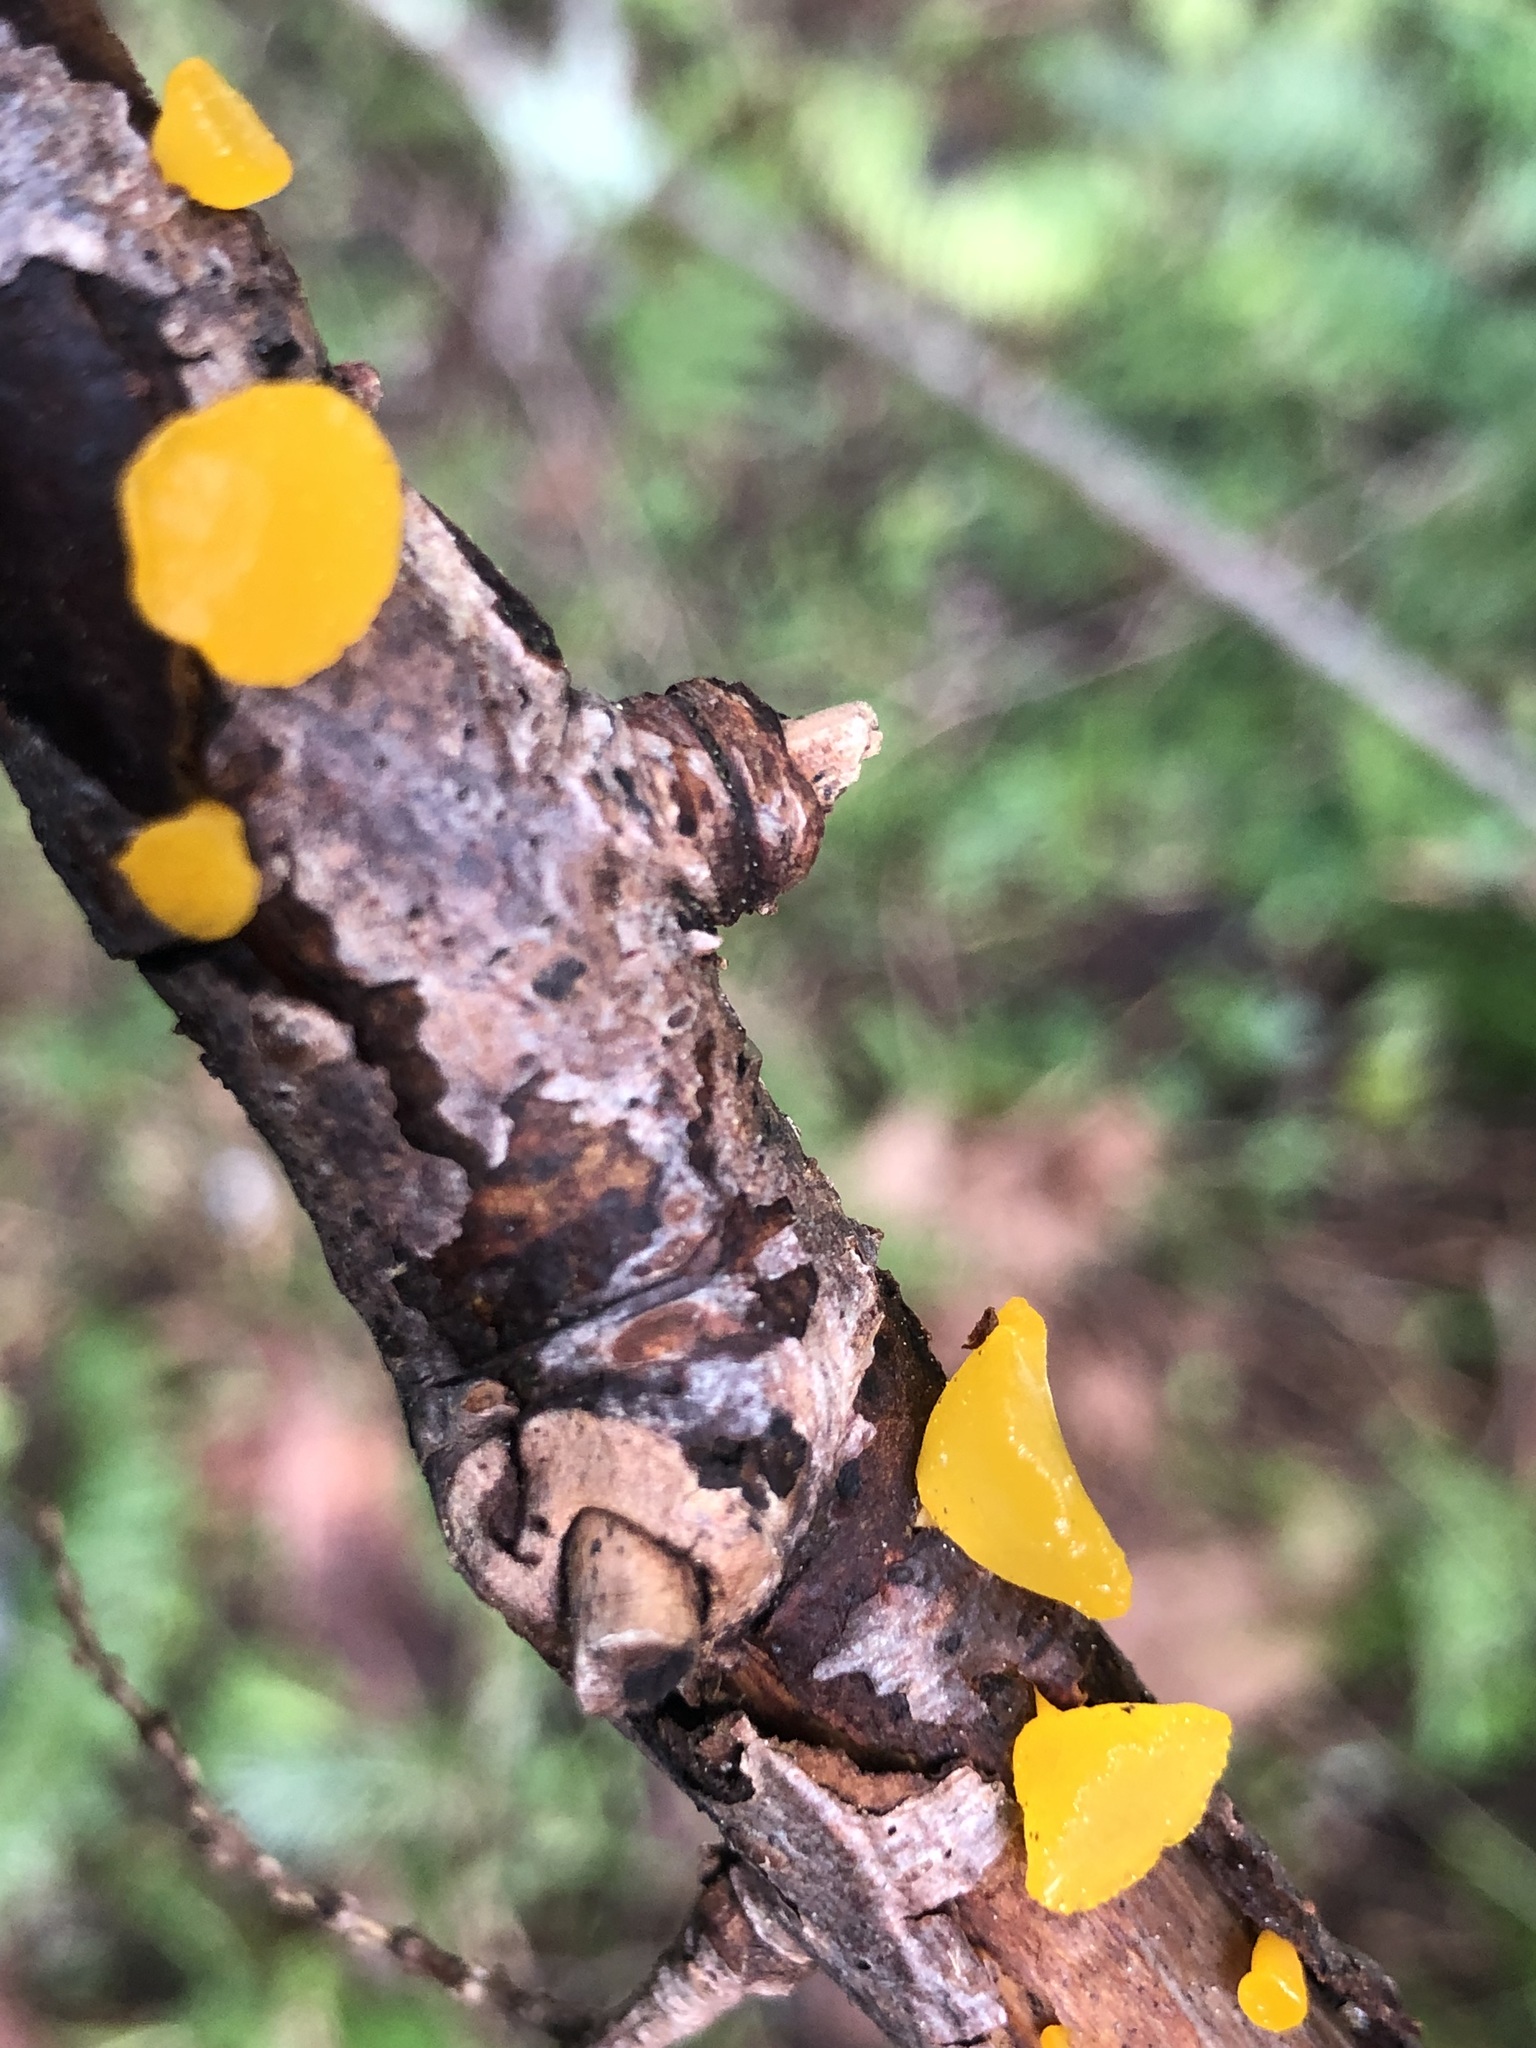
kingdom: Fungi
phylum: Basidiomycota
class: Dacrymycetes
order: Dacrymycetales
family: Dacrymycetaceae
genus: Guepiniopsis
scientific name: Guepiniopsis alpina
